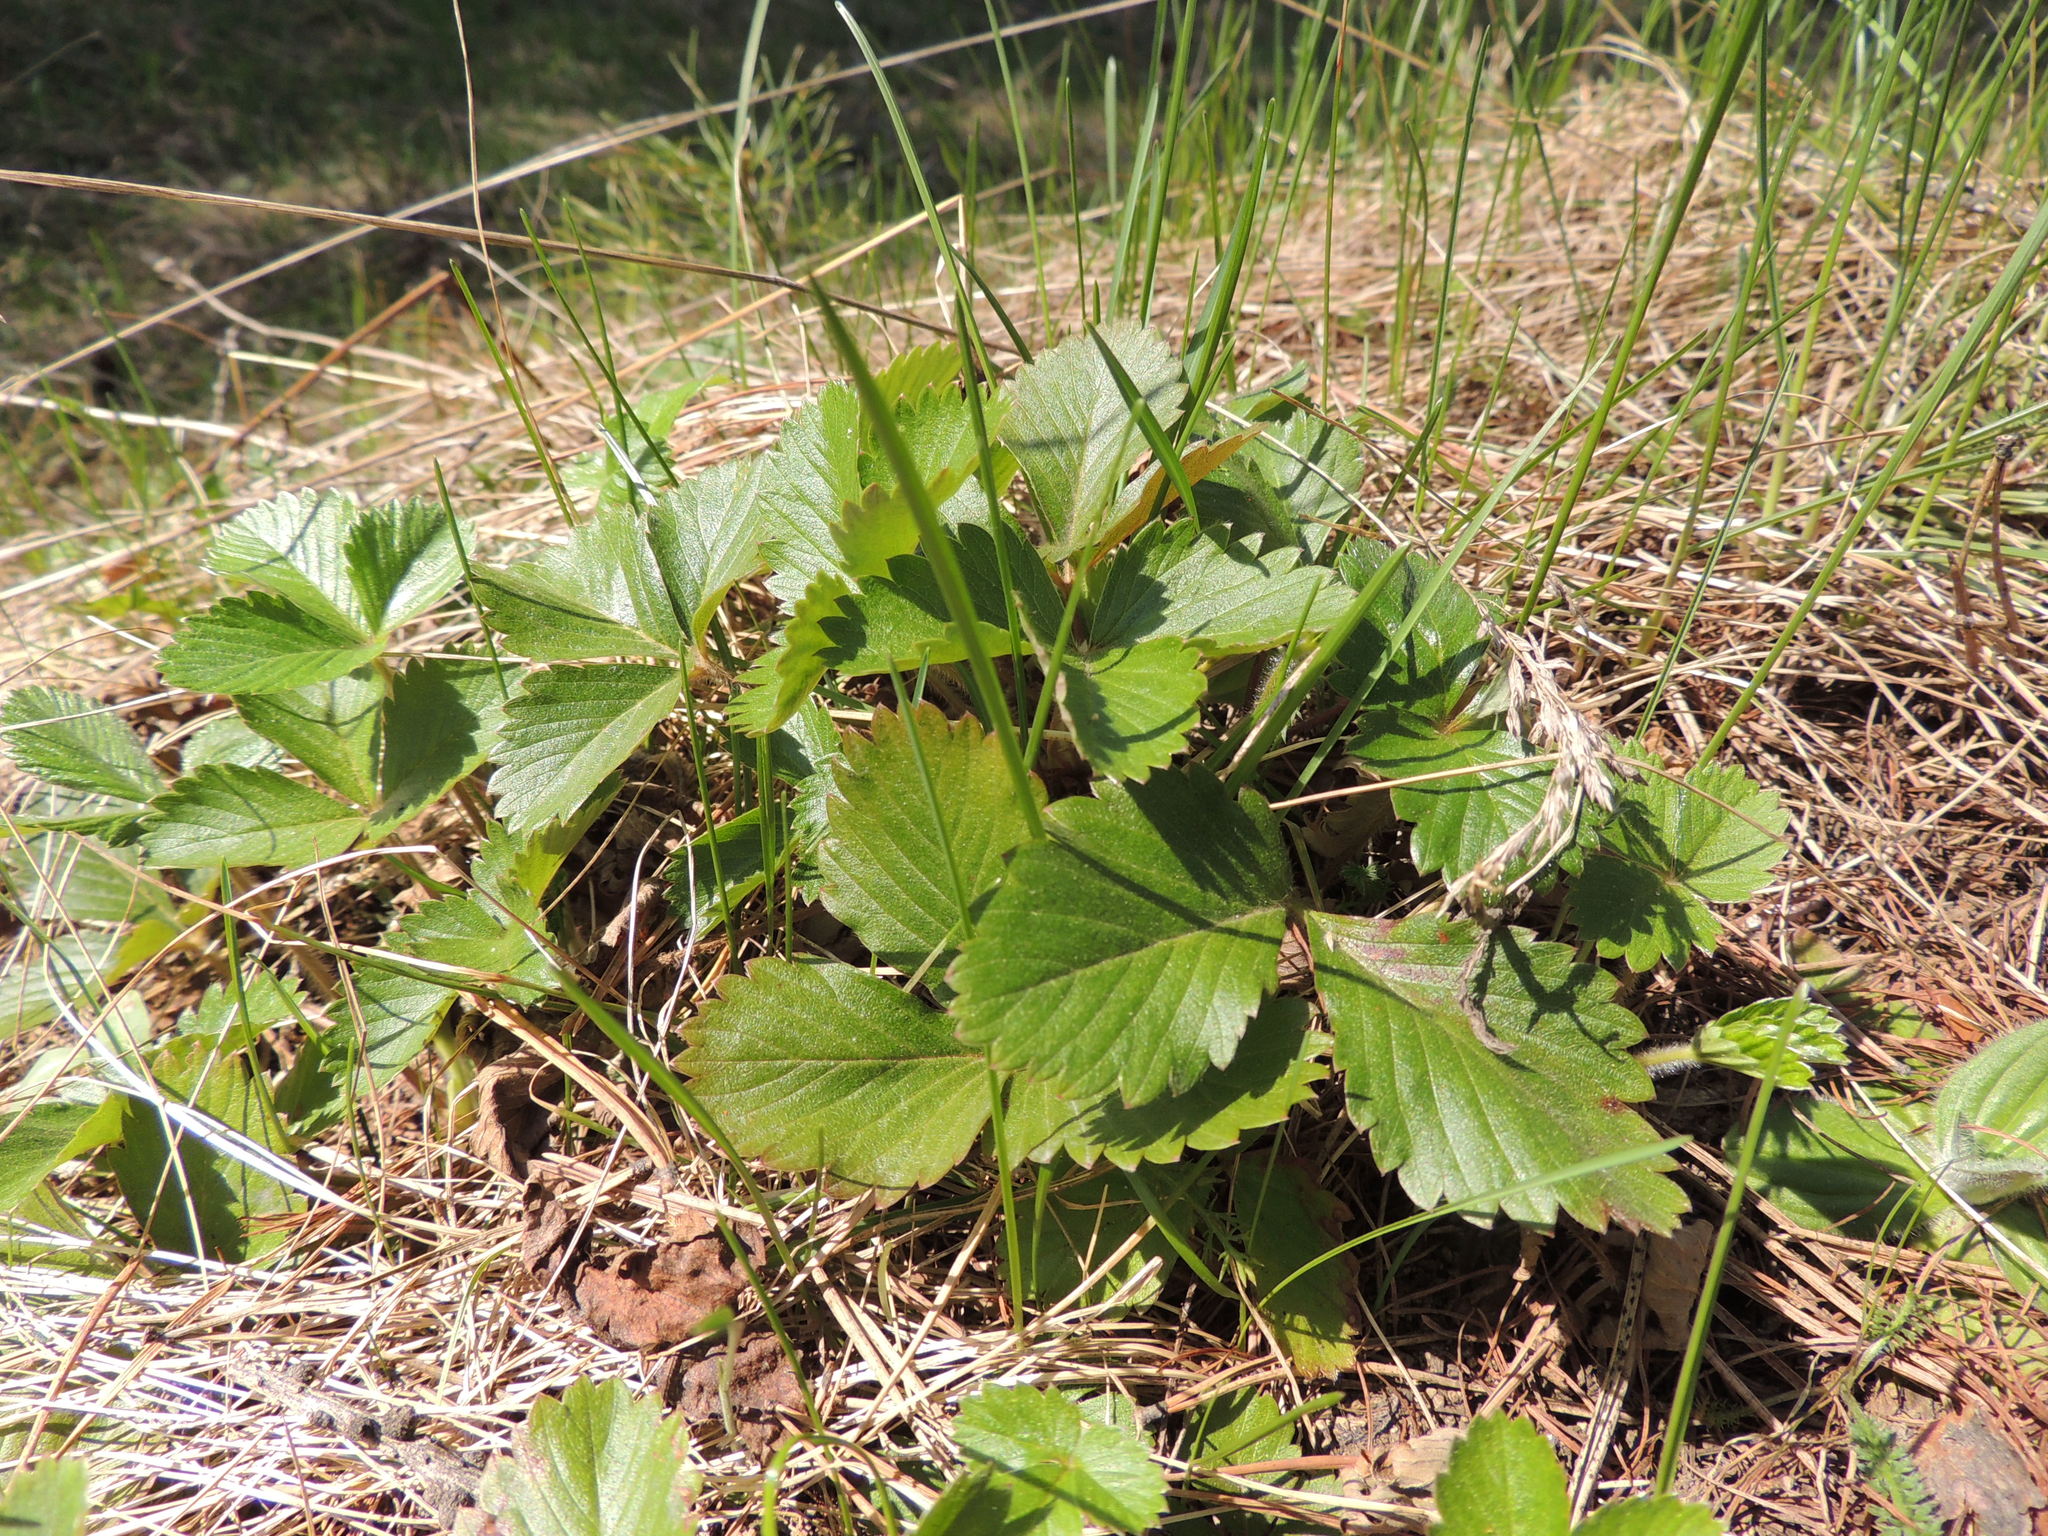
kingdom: Plantae
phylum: Tracheophyta
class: Magnoliopsida
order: Rosales
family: Rosaceae
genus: Fragaria
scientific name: Fragaria vesca
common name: Wild strawberry
